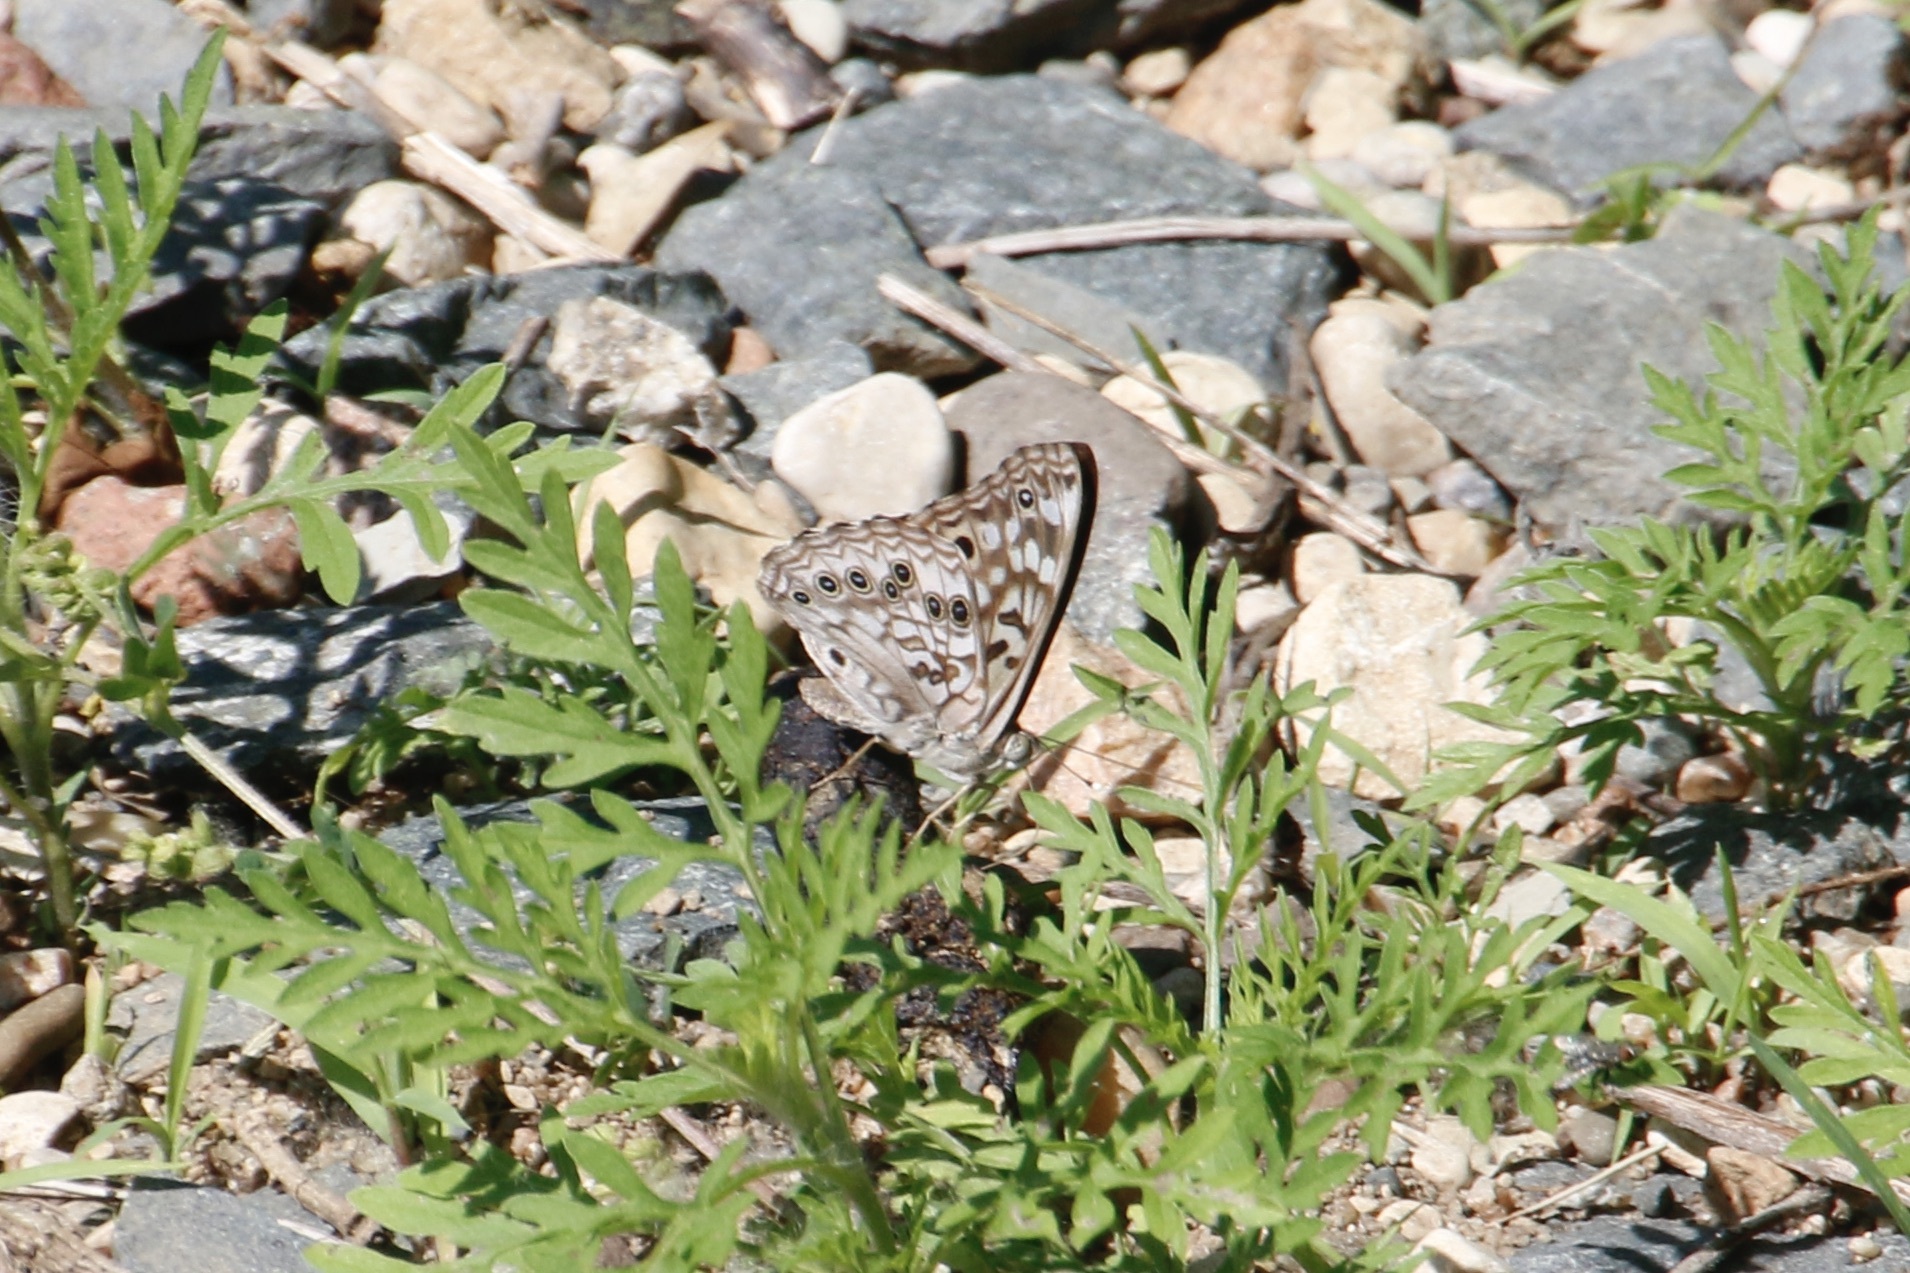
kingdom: Animalia
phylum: Arthropoda
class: Insecta
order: Lepidoptera
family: Nymphalidae
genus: Asterocampa
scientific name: Asterocampa celtis
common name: Hackberry emperor
